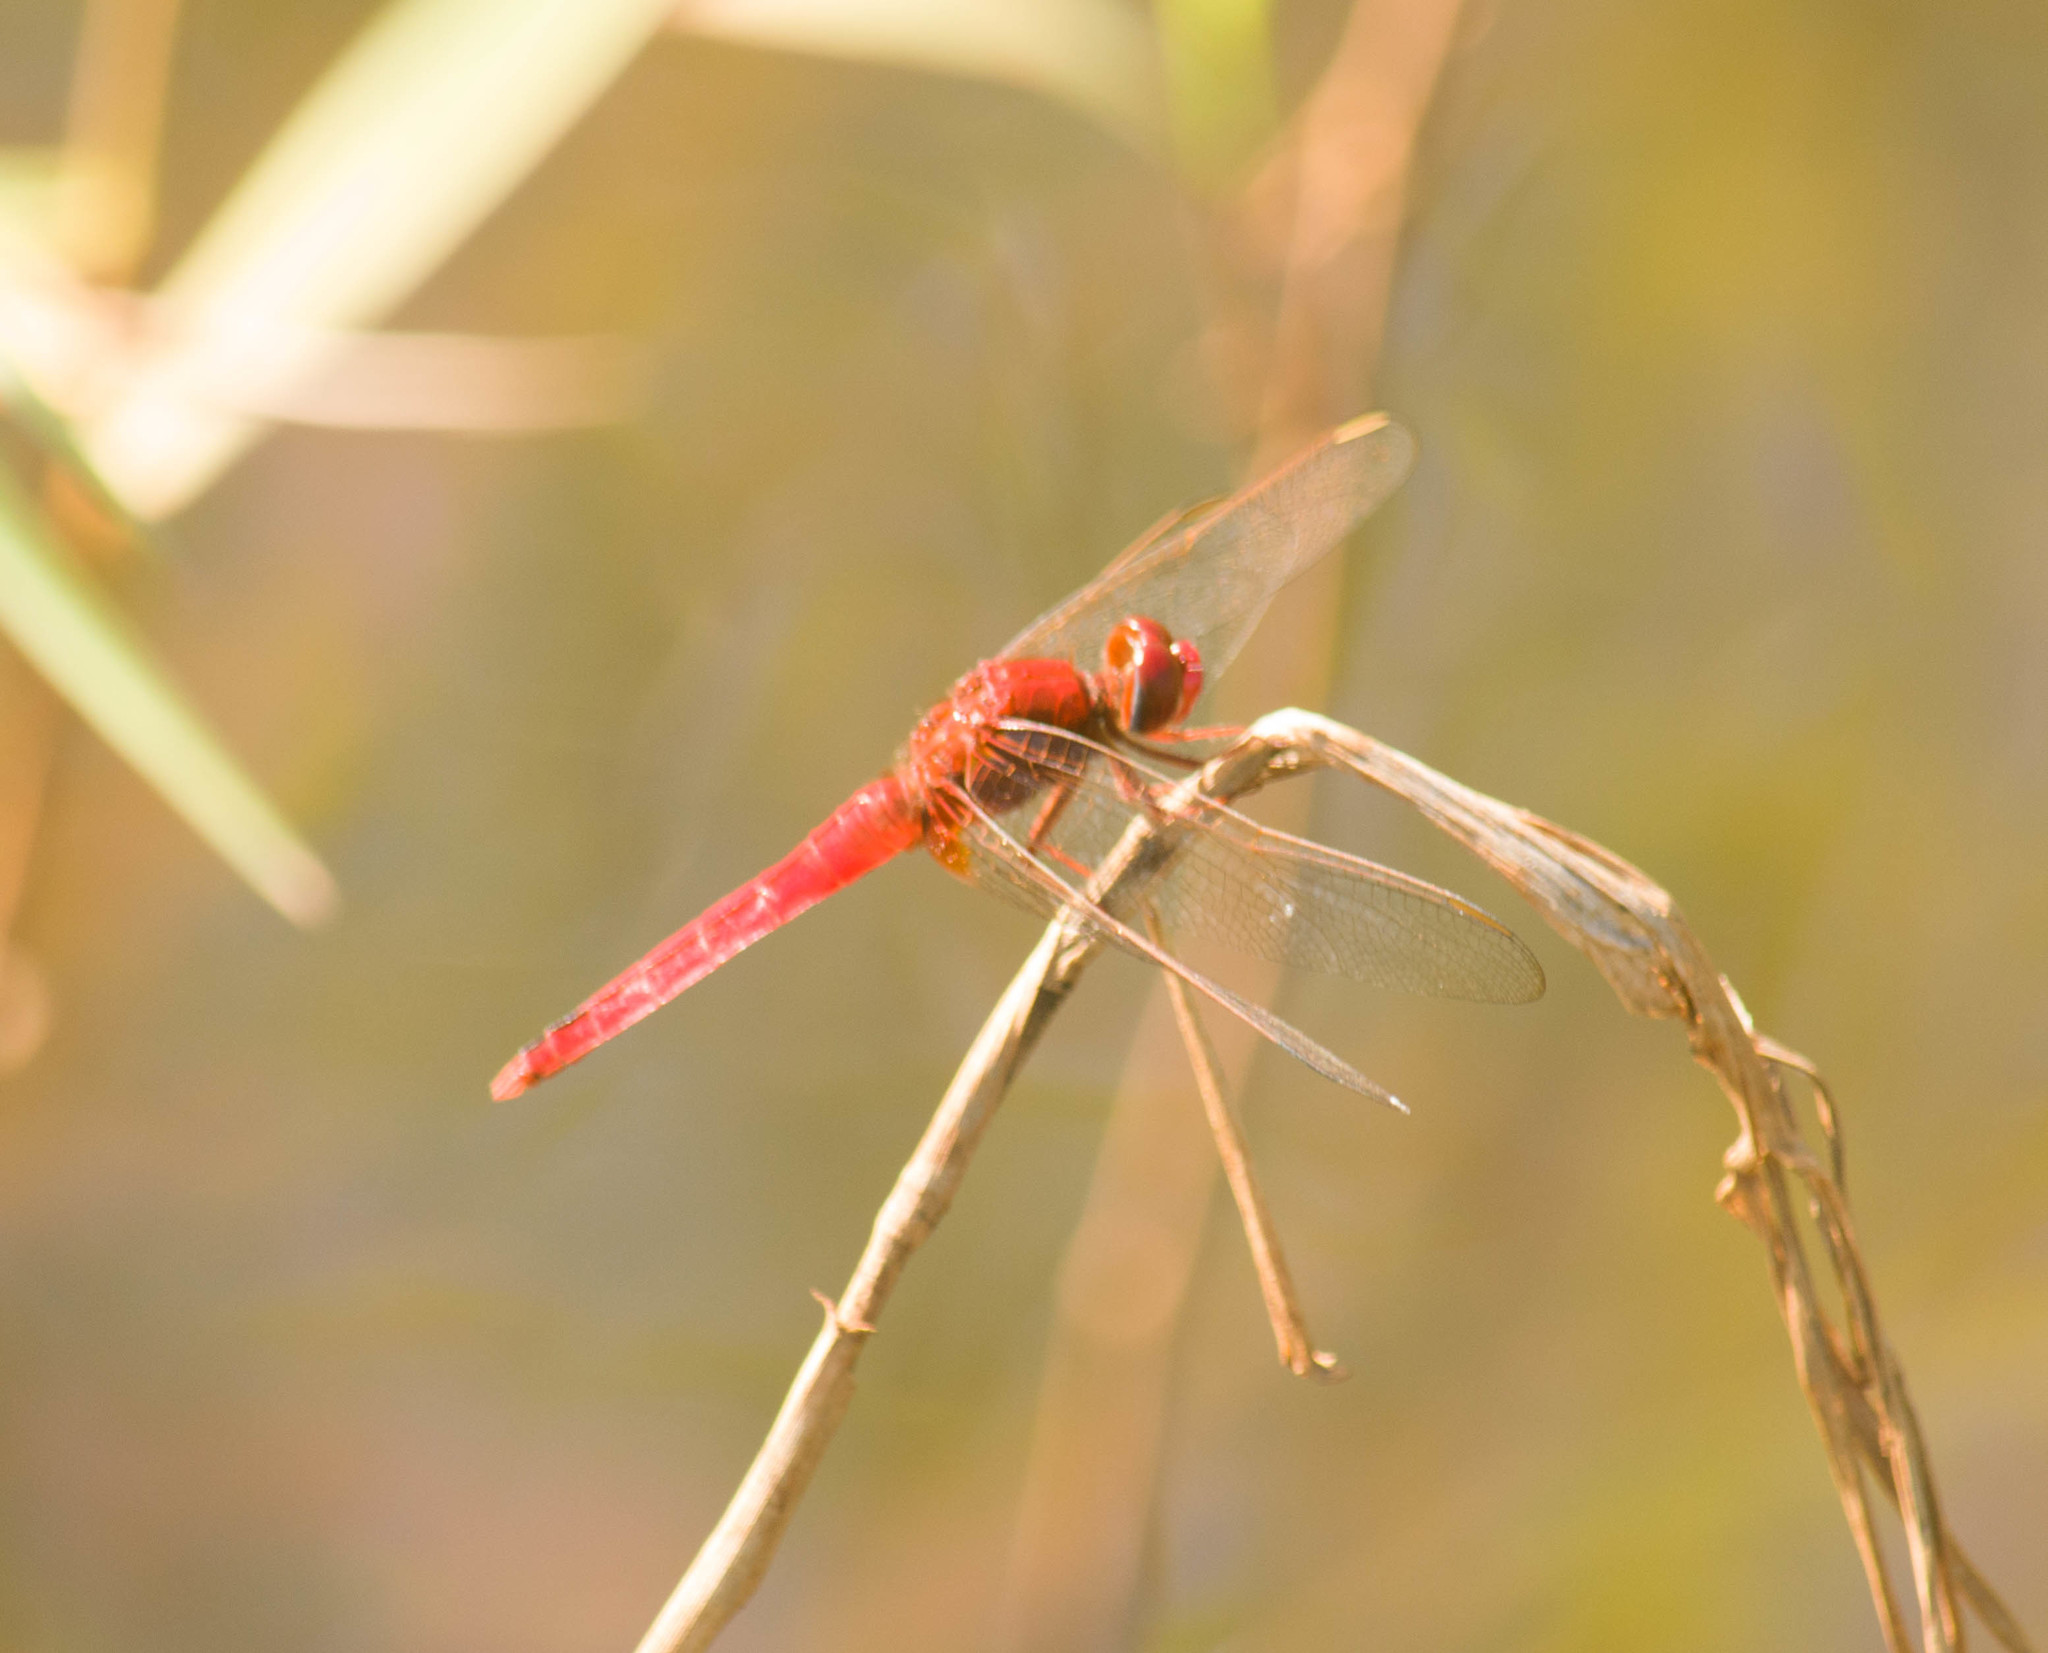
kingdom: Animalia
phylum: Arthropoda
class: Insecta
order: Odonata
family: Libellulidae
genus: Crocothemis
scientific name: Crocothemis servilia
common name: Scarlet skimmer
